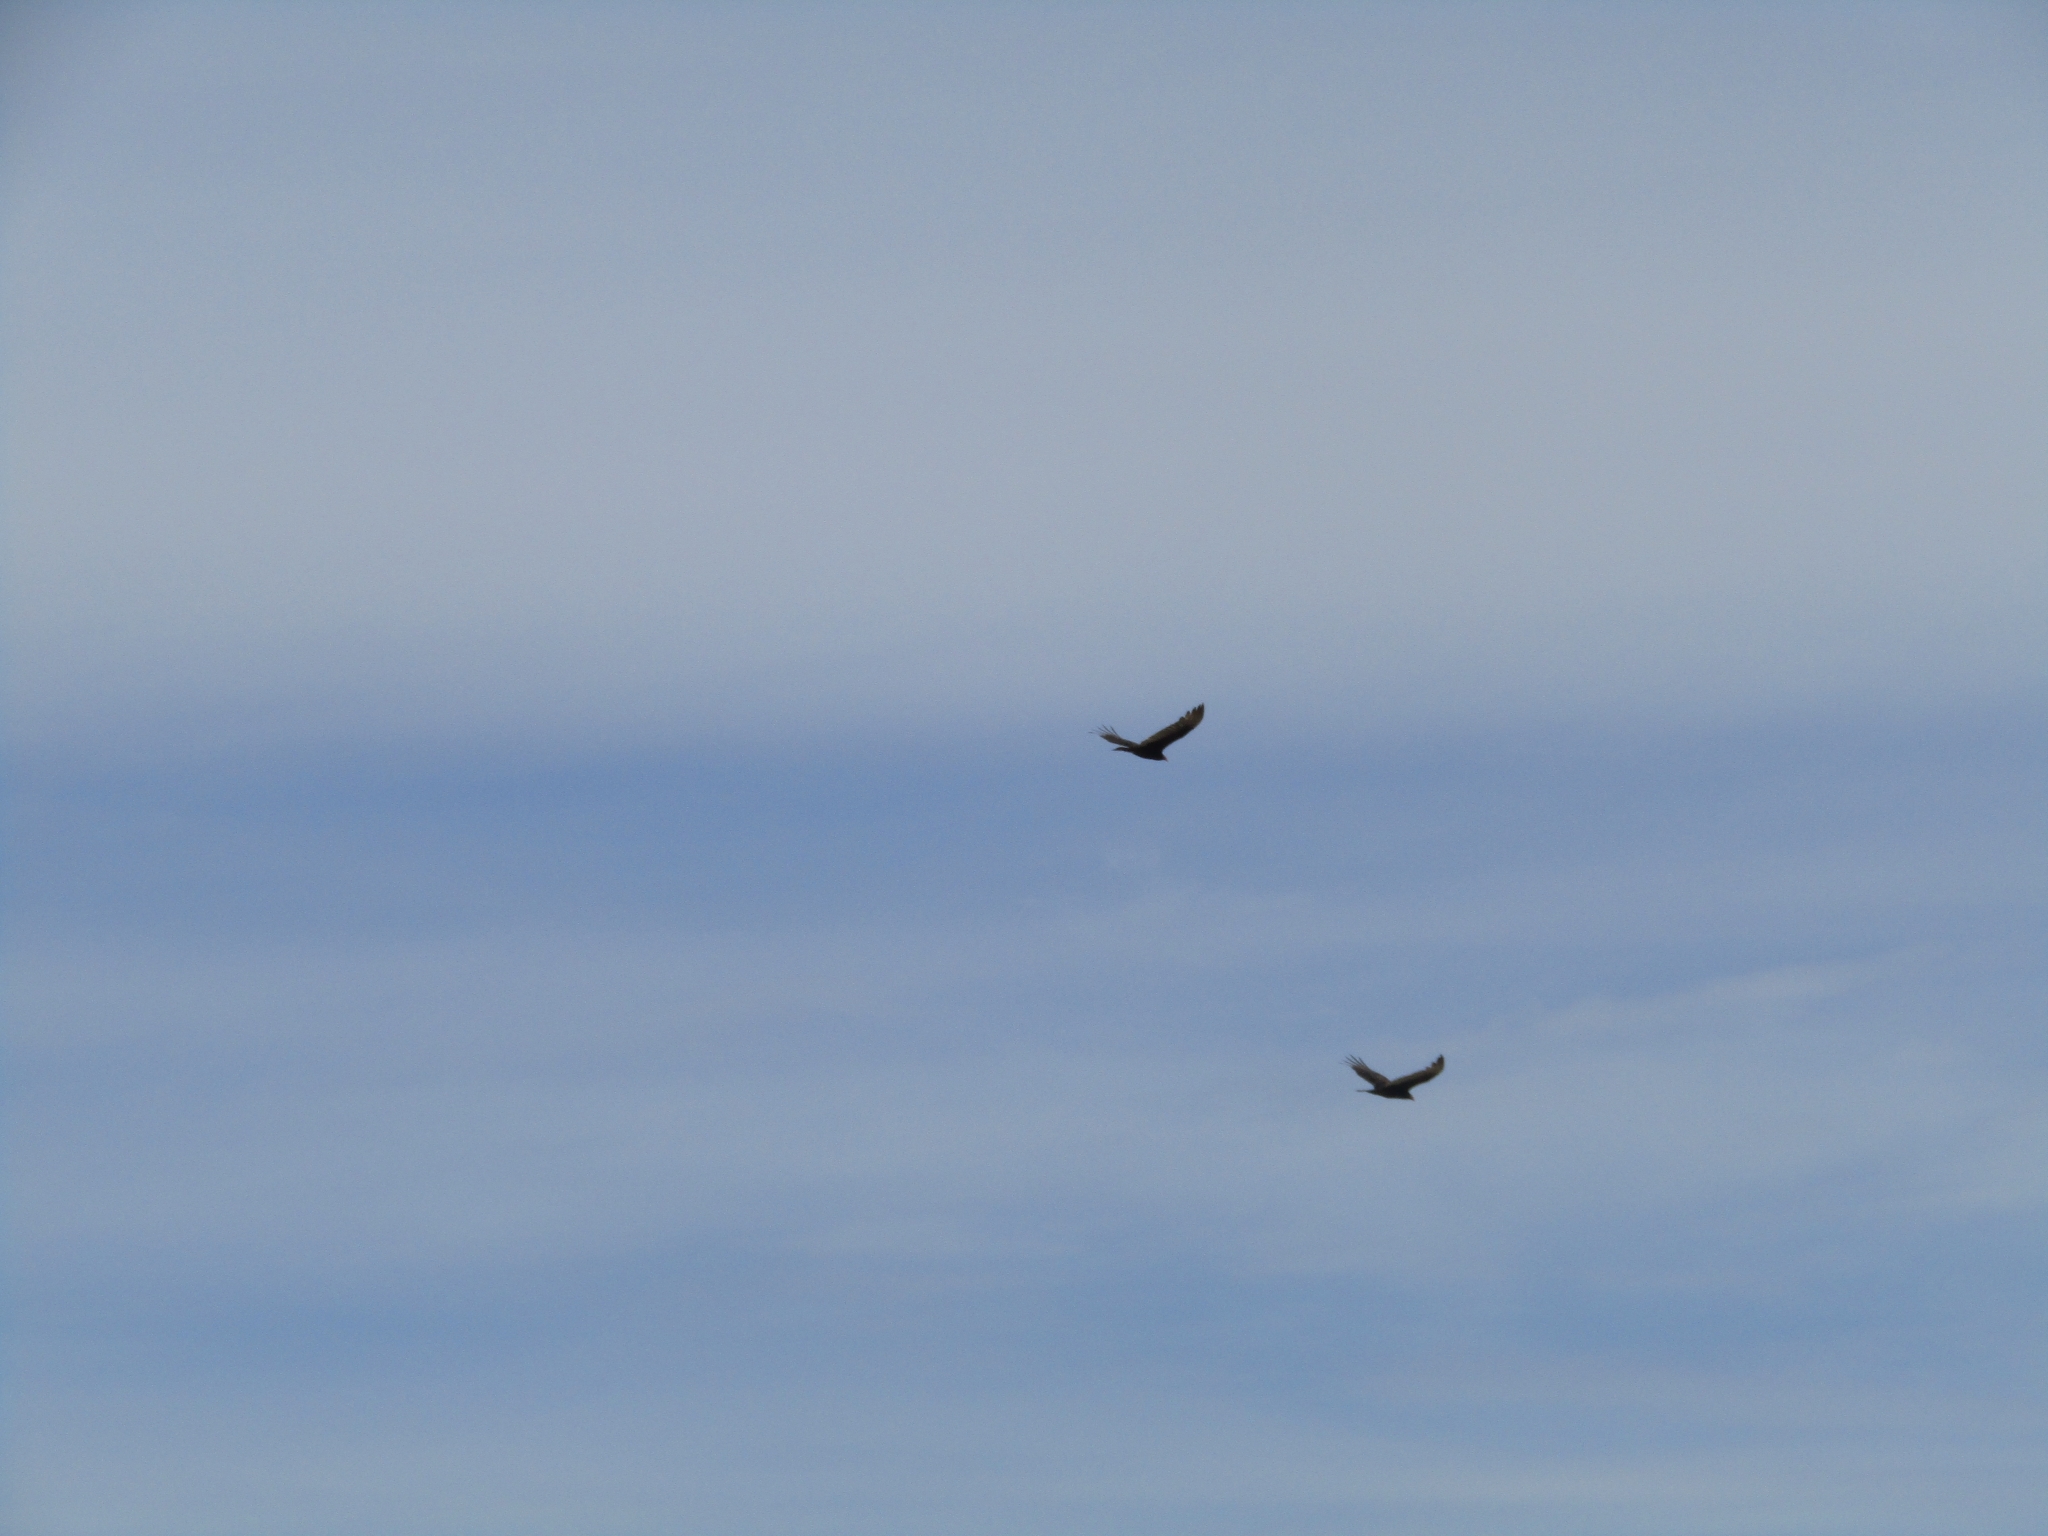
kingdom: Animalia
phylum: Chordata
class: Aves
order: Accipitriformes
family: Cathartidae
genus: Cathartes
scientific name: Cathartes aura
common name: Turkey vulture
